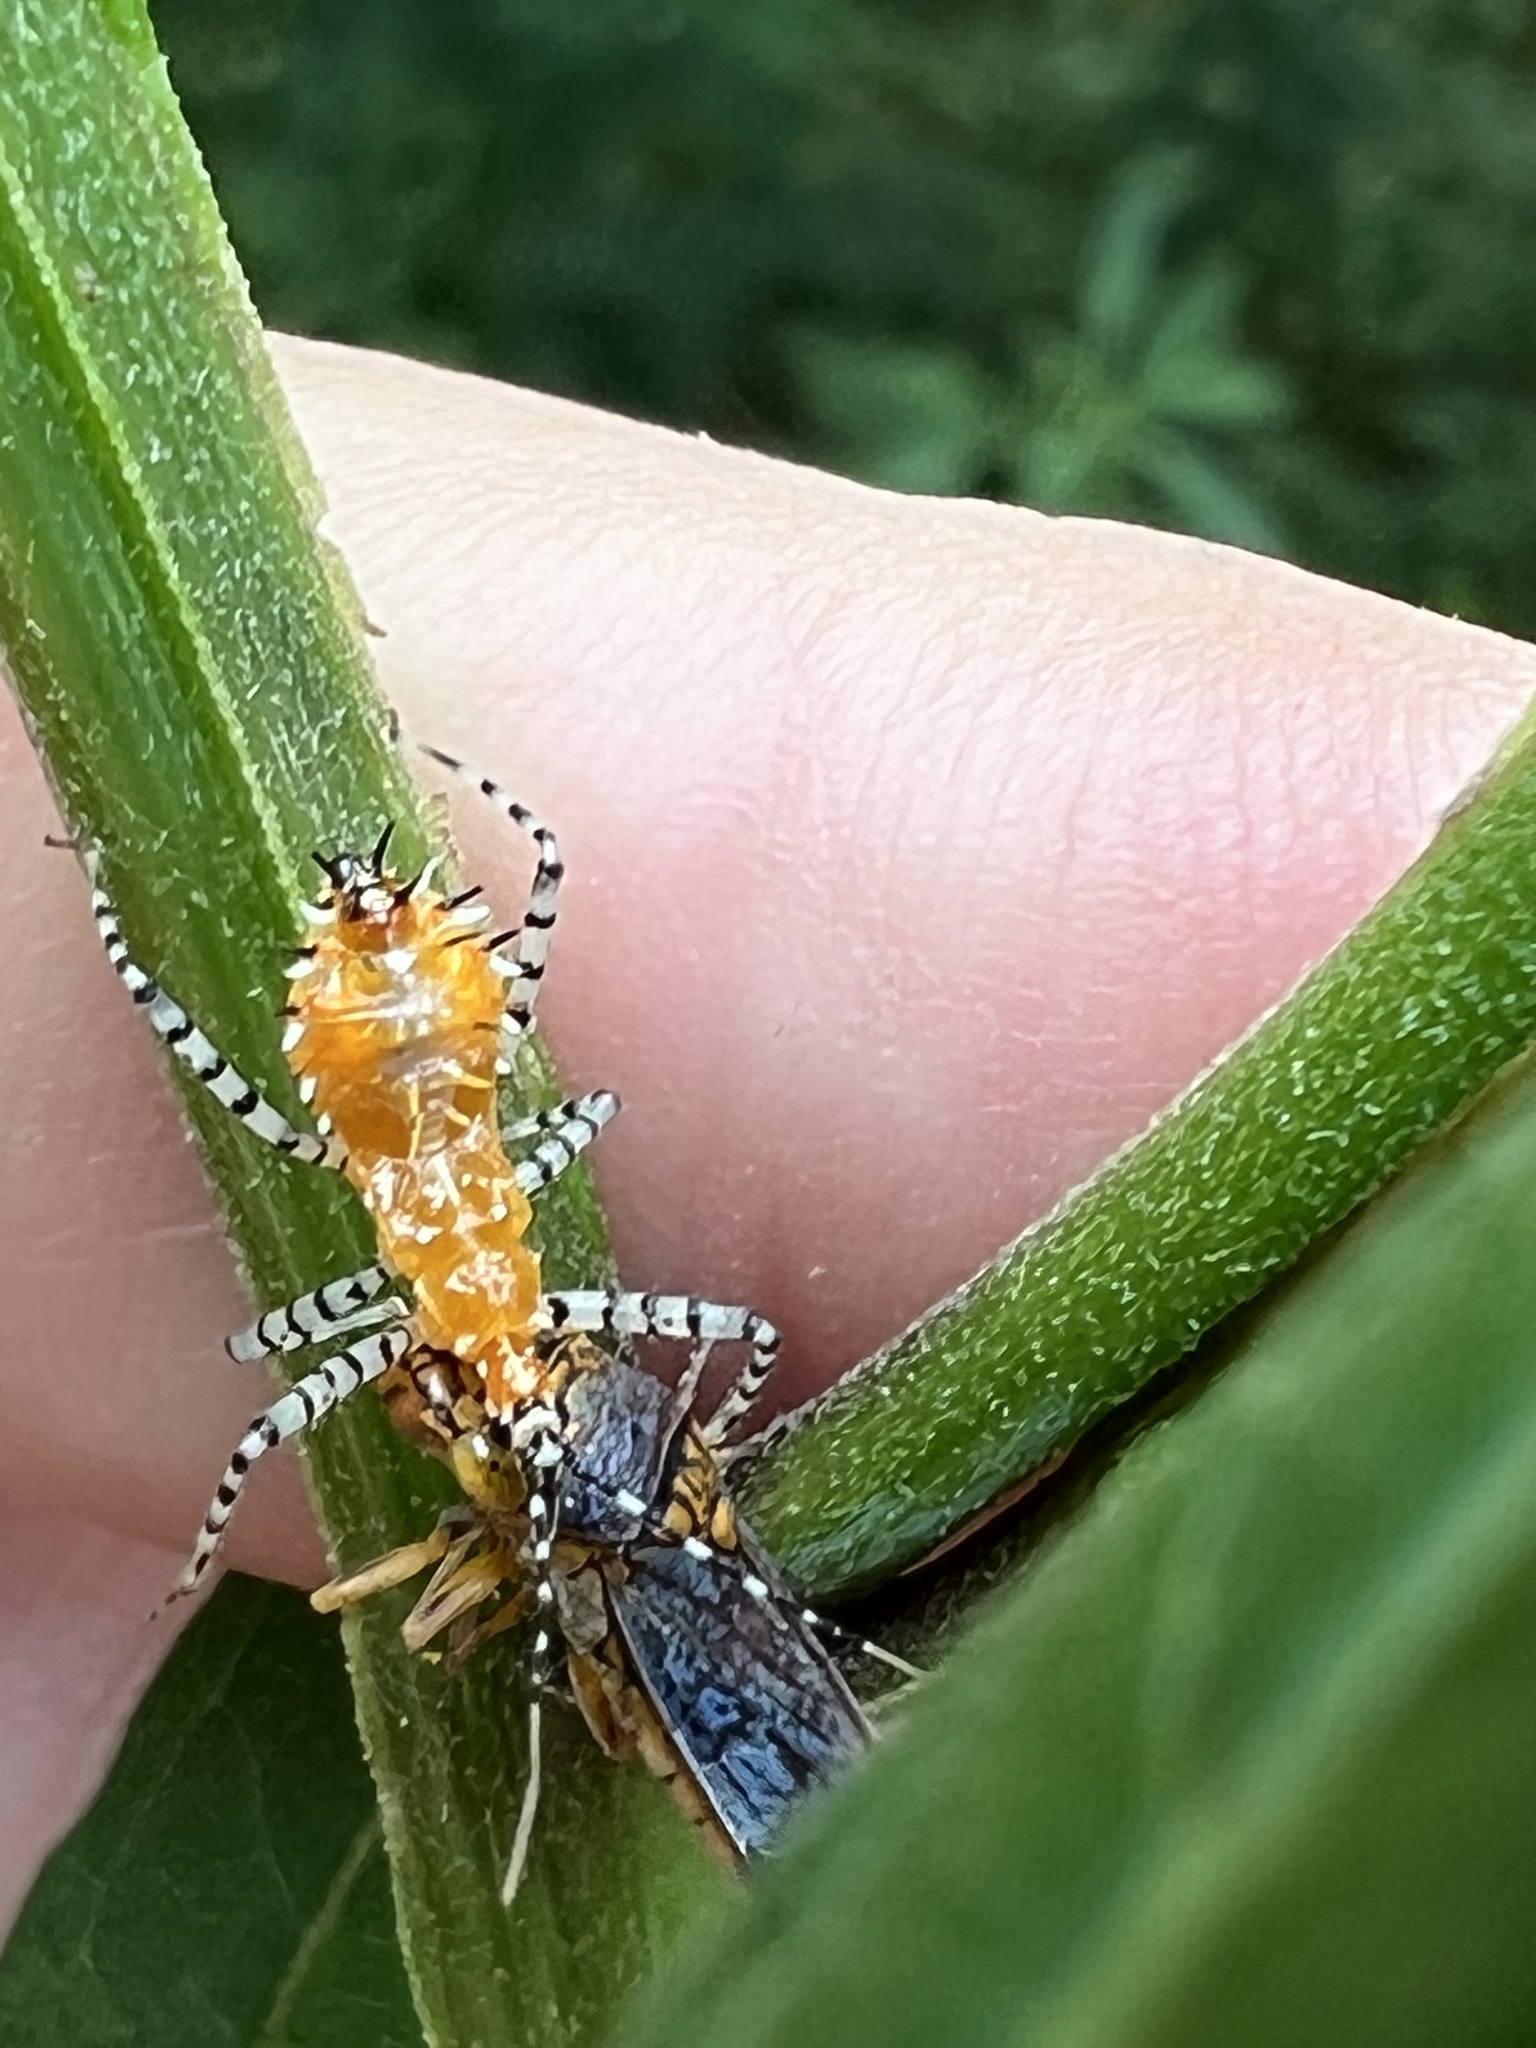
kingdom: Animalia
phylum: Arthropoda
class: Insecta
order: Hemiptera
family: Reduviidae
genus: Pselliopus
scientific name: Pselliopus cinctus
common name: Ringed assassin bug
